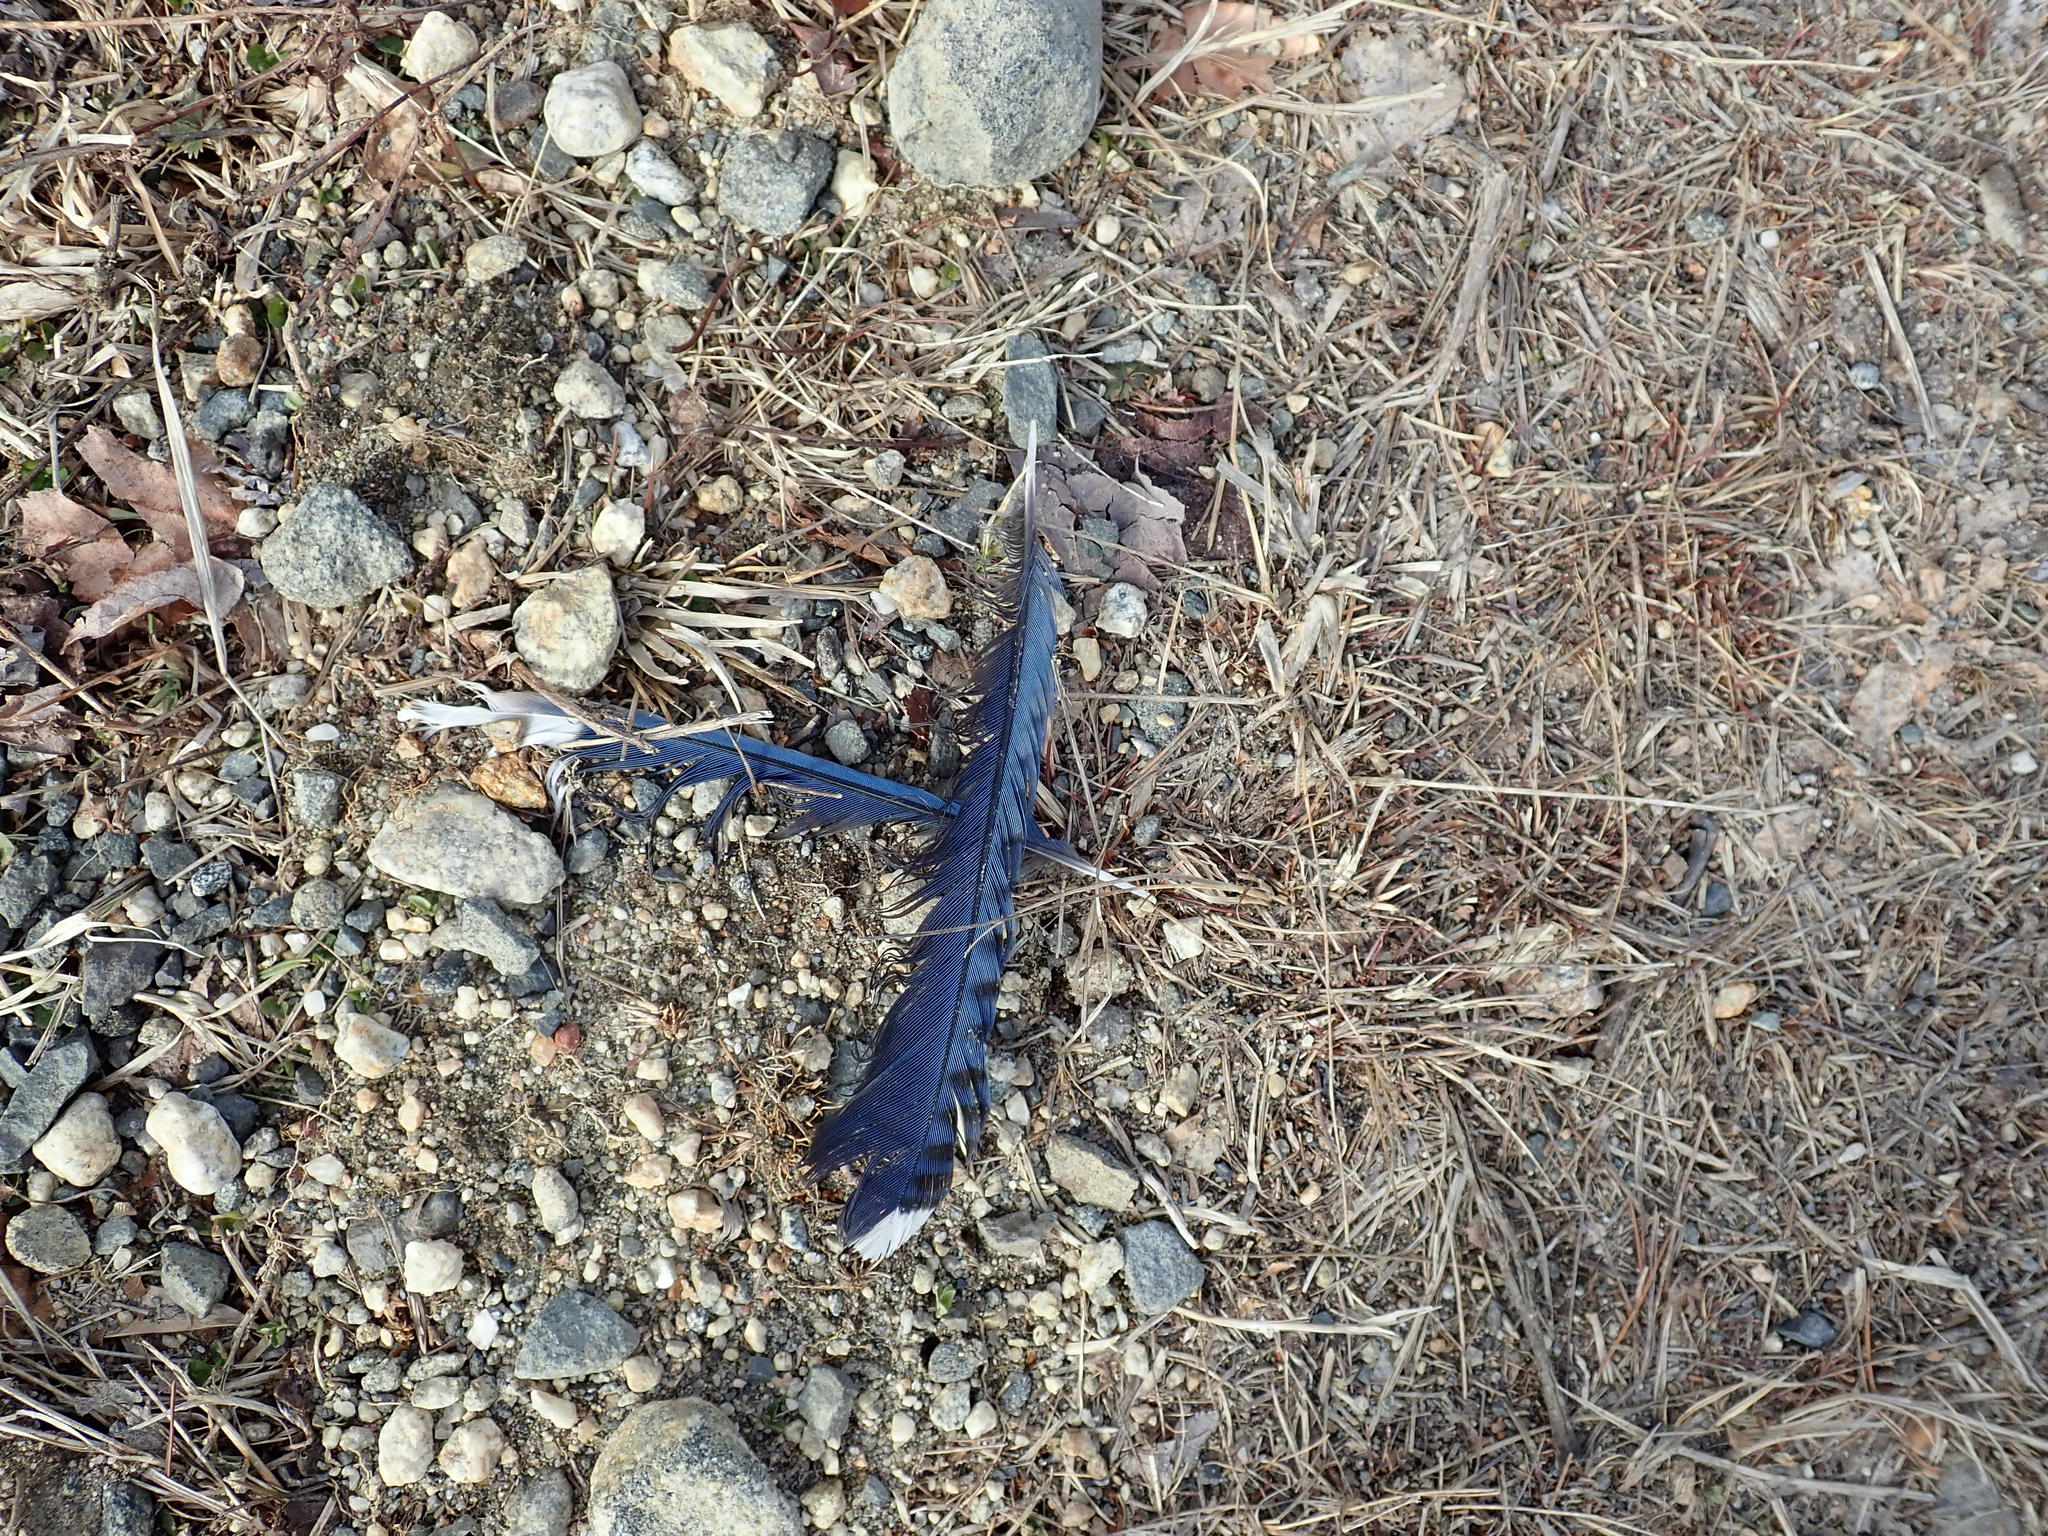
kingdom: Animalia
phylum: Chordata
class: Aves
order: Passeriformes
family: Corvidae
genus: Cyanocitta
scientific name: Cyanocitta cristata
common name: Blue jay
